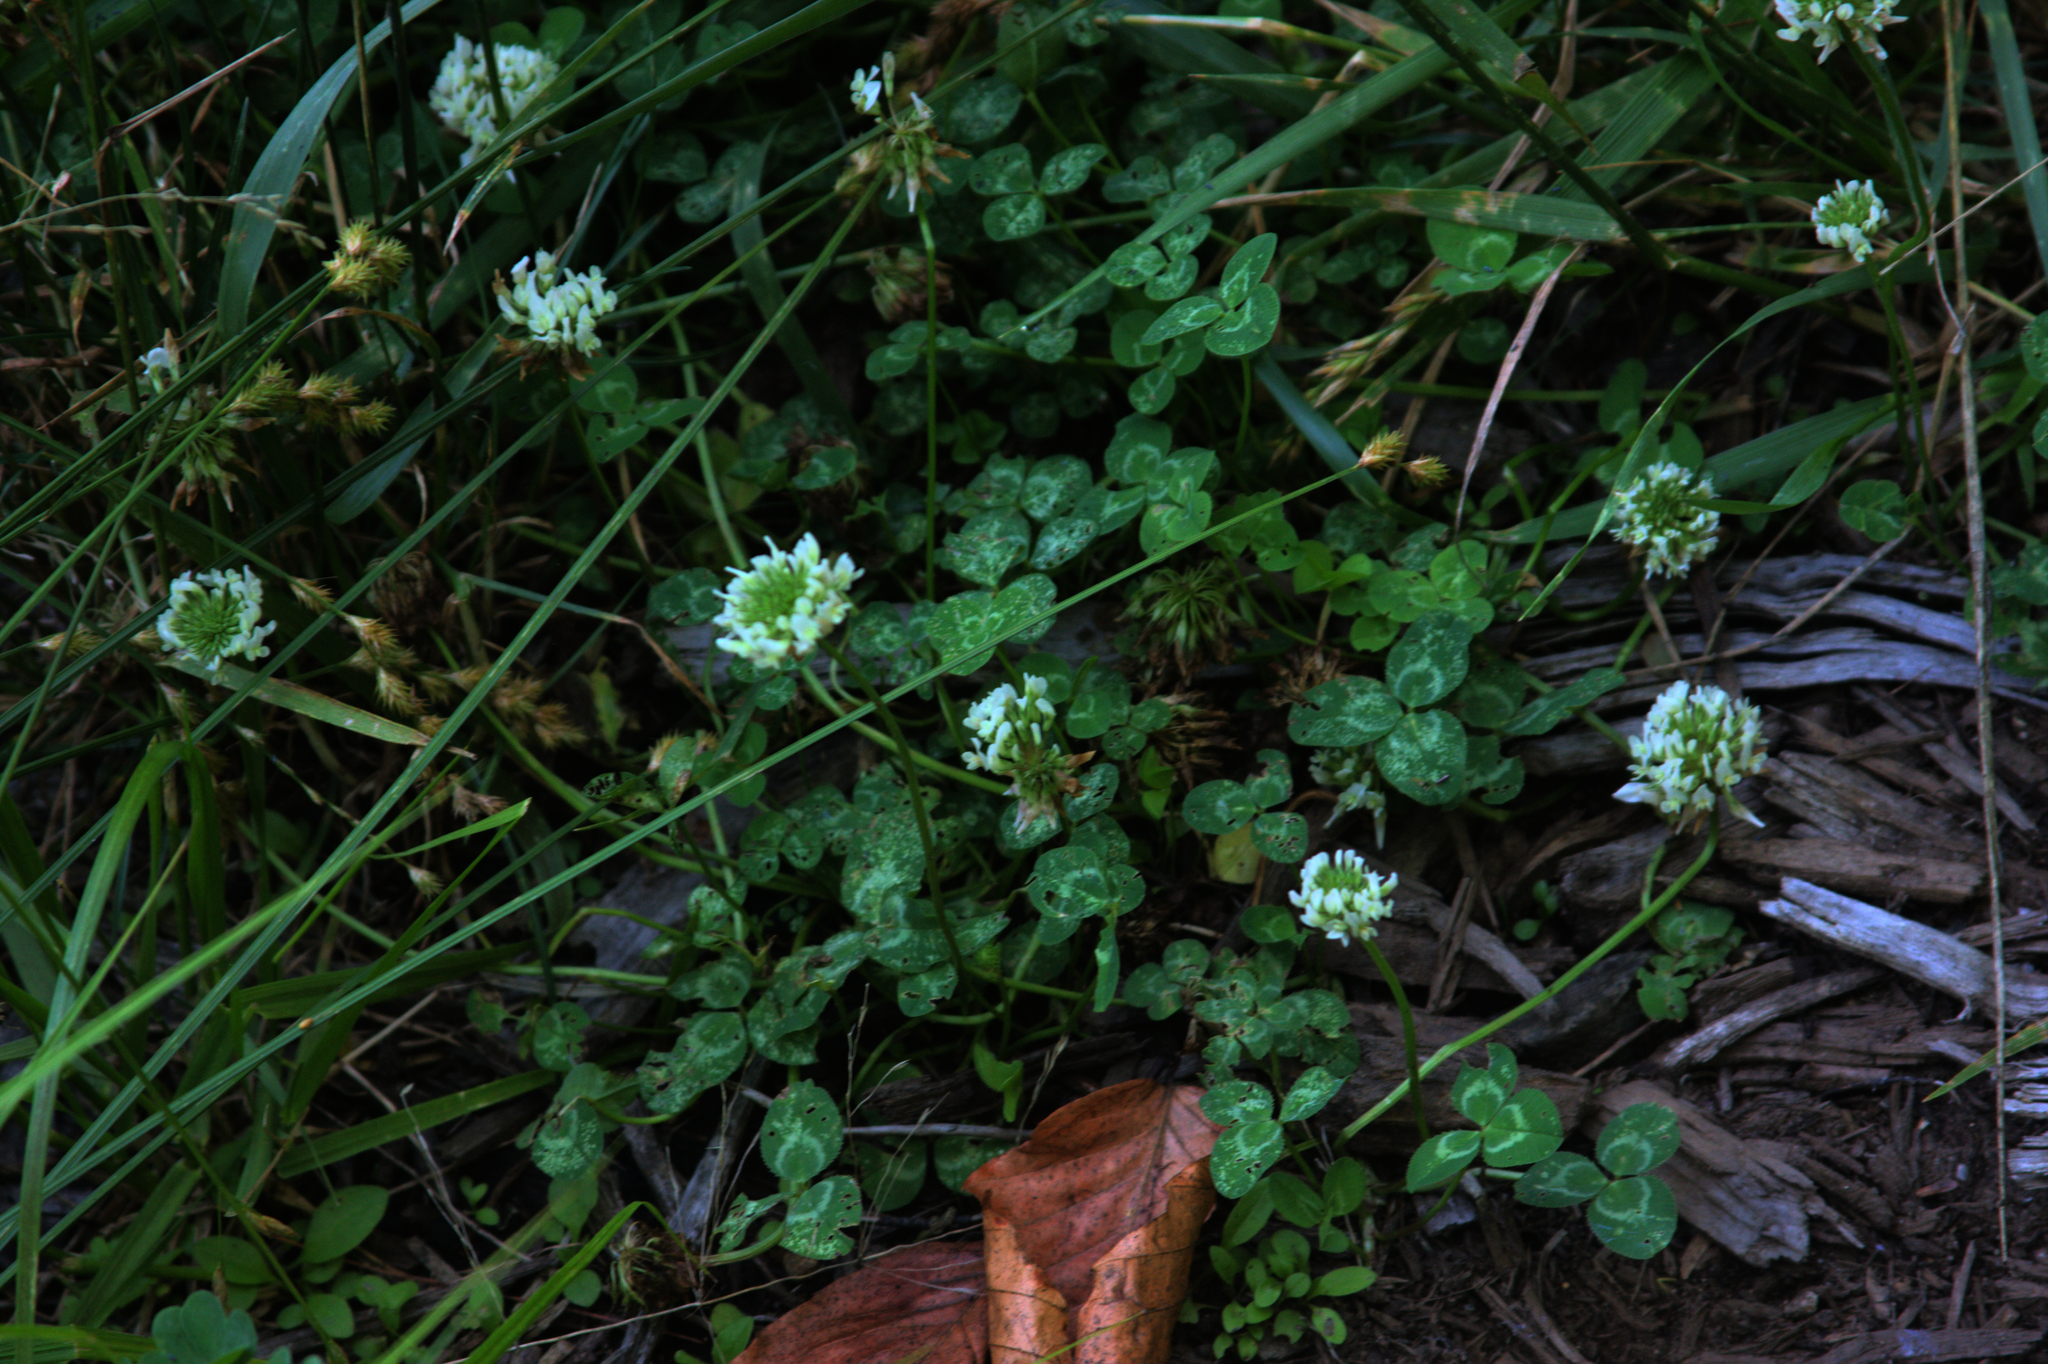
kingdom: Plantae
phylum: Tracheophyta
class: Magnoliopsida
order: Fabales
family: Fabaceae
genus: Trifolium
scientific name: Trifolium repens
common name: White clover
